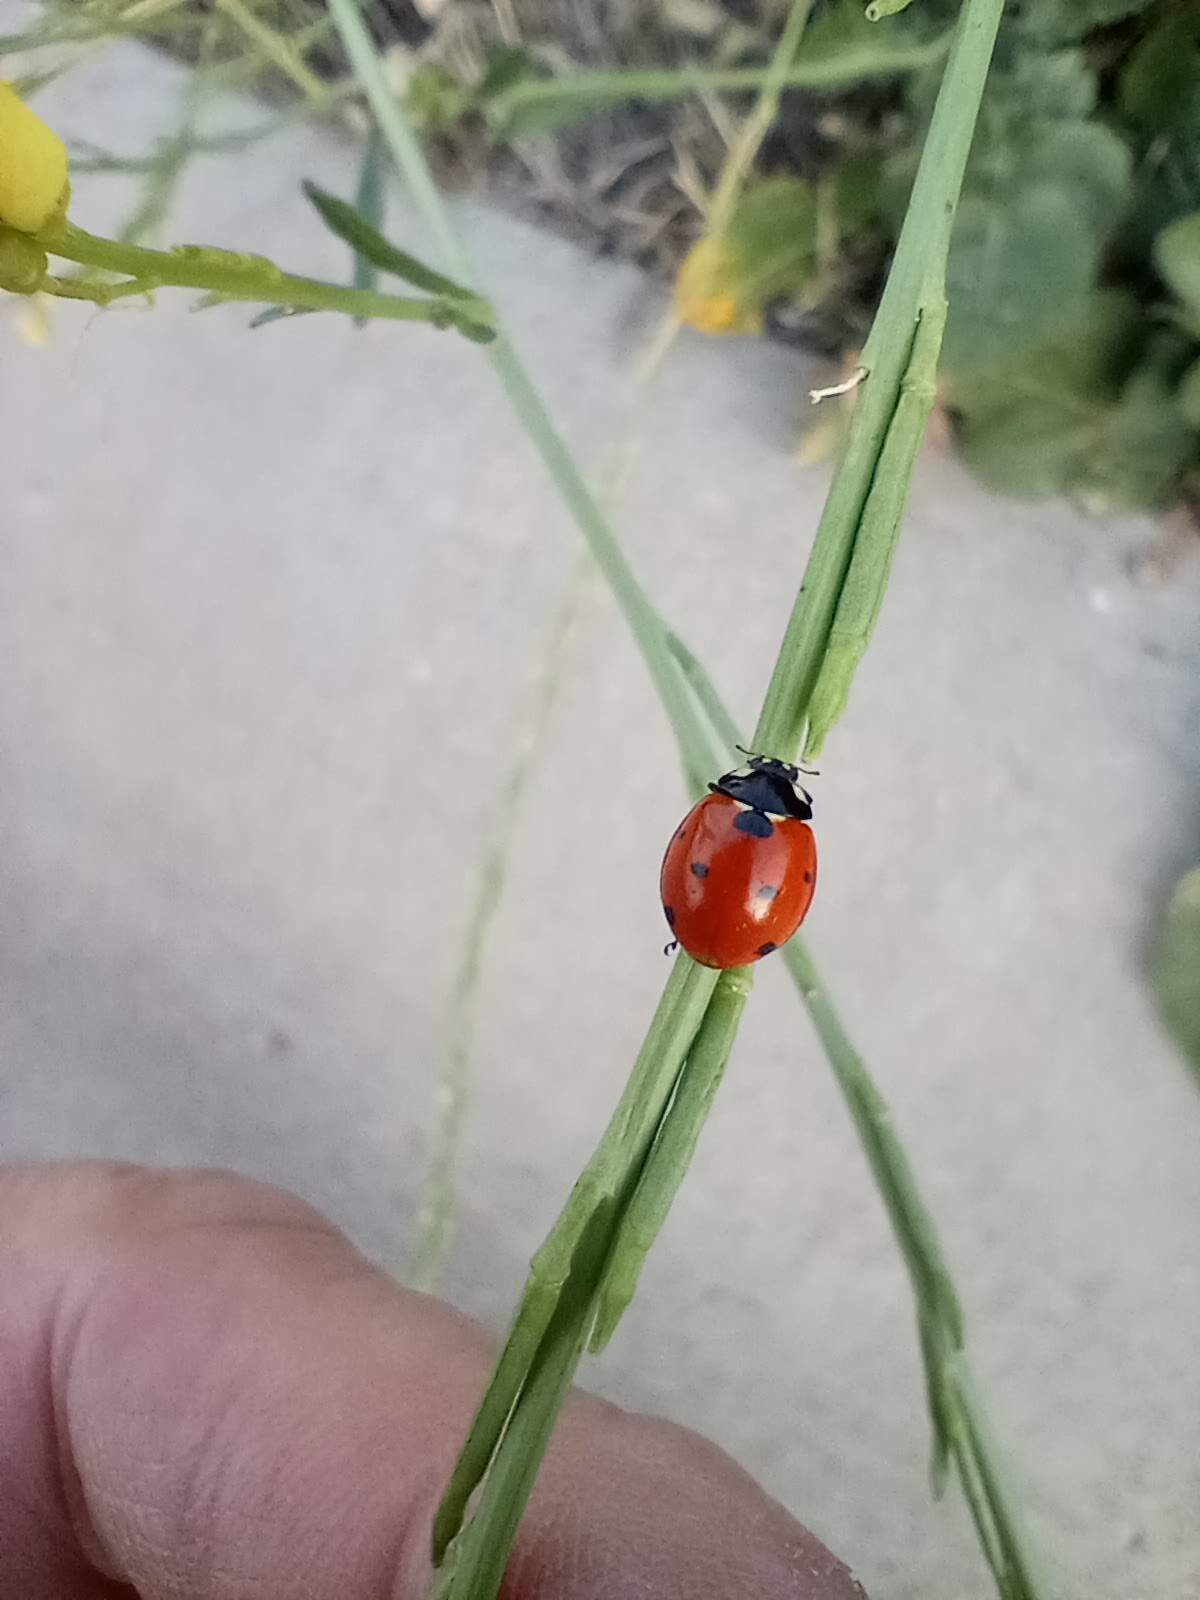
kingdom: Animalia
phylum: Arthropoda
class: Insecta
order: Coleoptera
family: Coccinellidae
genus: Coccinella
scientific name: Coccinella septempunctata
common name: Sevenspotted lady beetle
